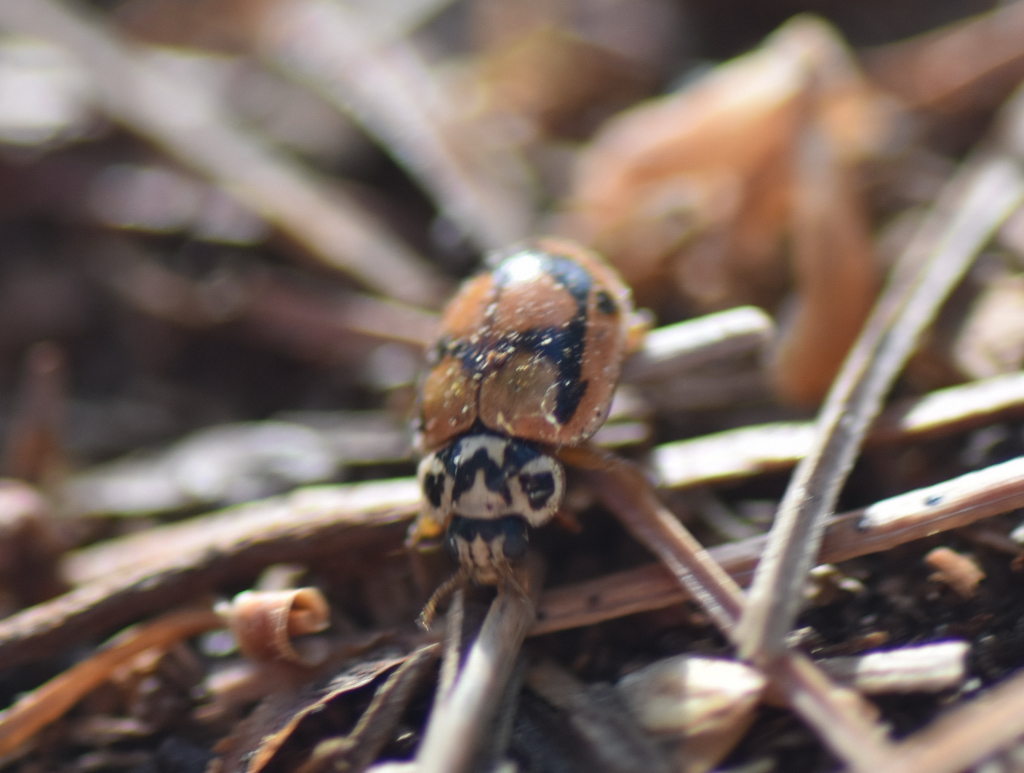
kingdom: Animalia
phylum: Arthropoda
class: Insecta
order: Coleoptera
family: Coccinellidae
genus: Mulsantina
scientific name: Mulsantina picta
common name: Painted ladybird
